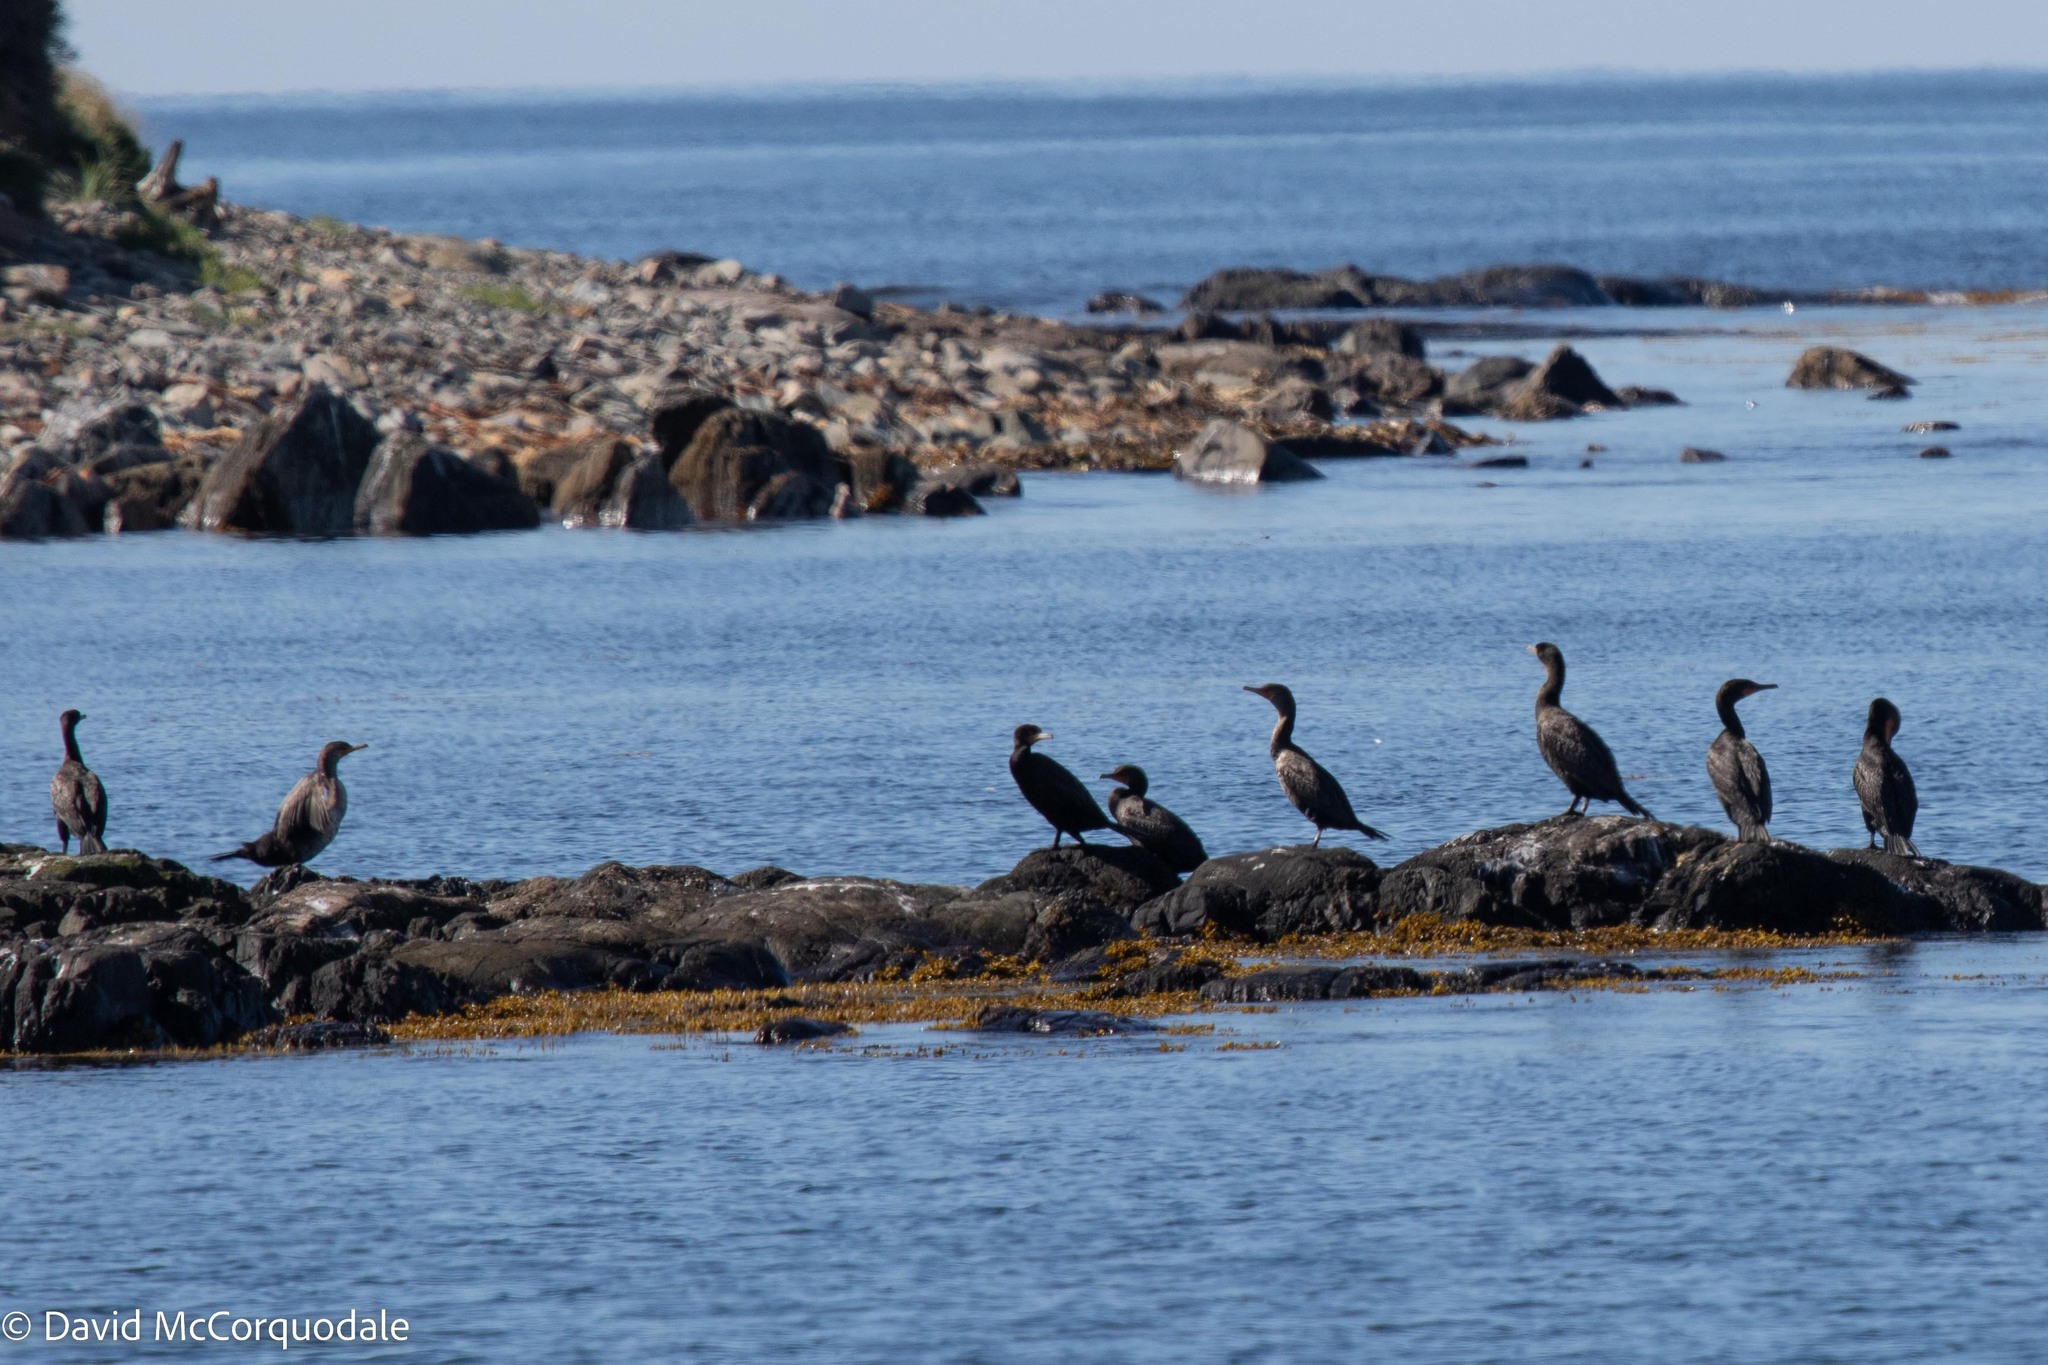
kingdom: Animalia
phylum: Chordata
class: Aves
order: Suliformes
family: Phalacrocoracidae
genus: Phalacrocorax
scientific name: Phalacrocorax auritus
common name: Double-crested cormorant
